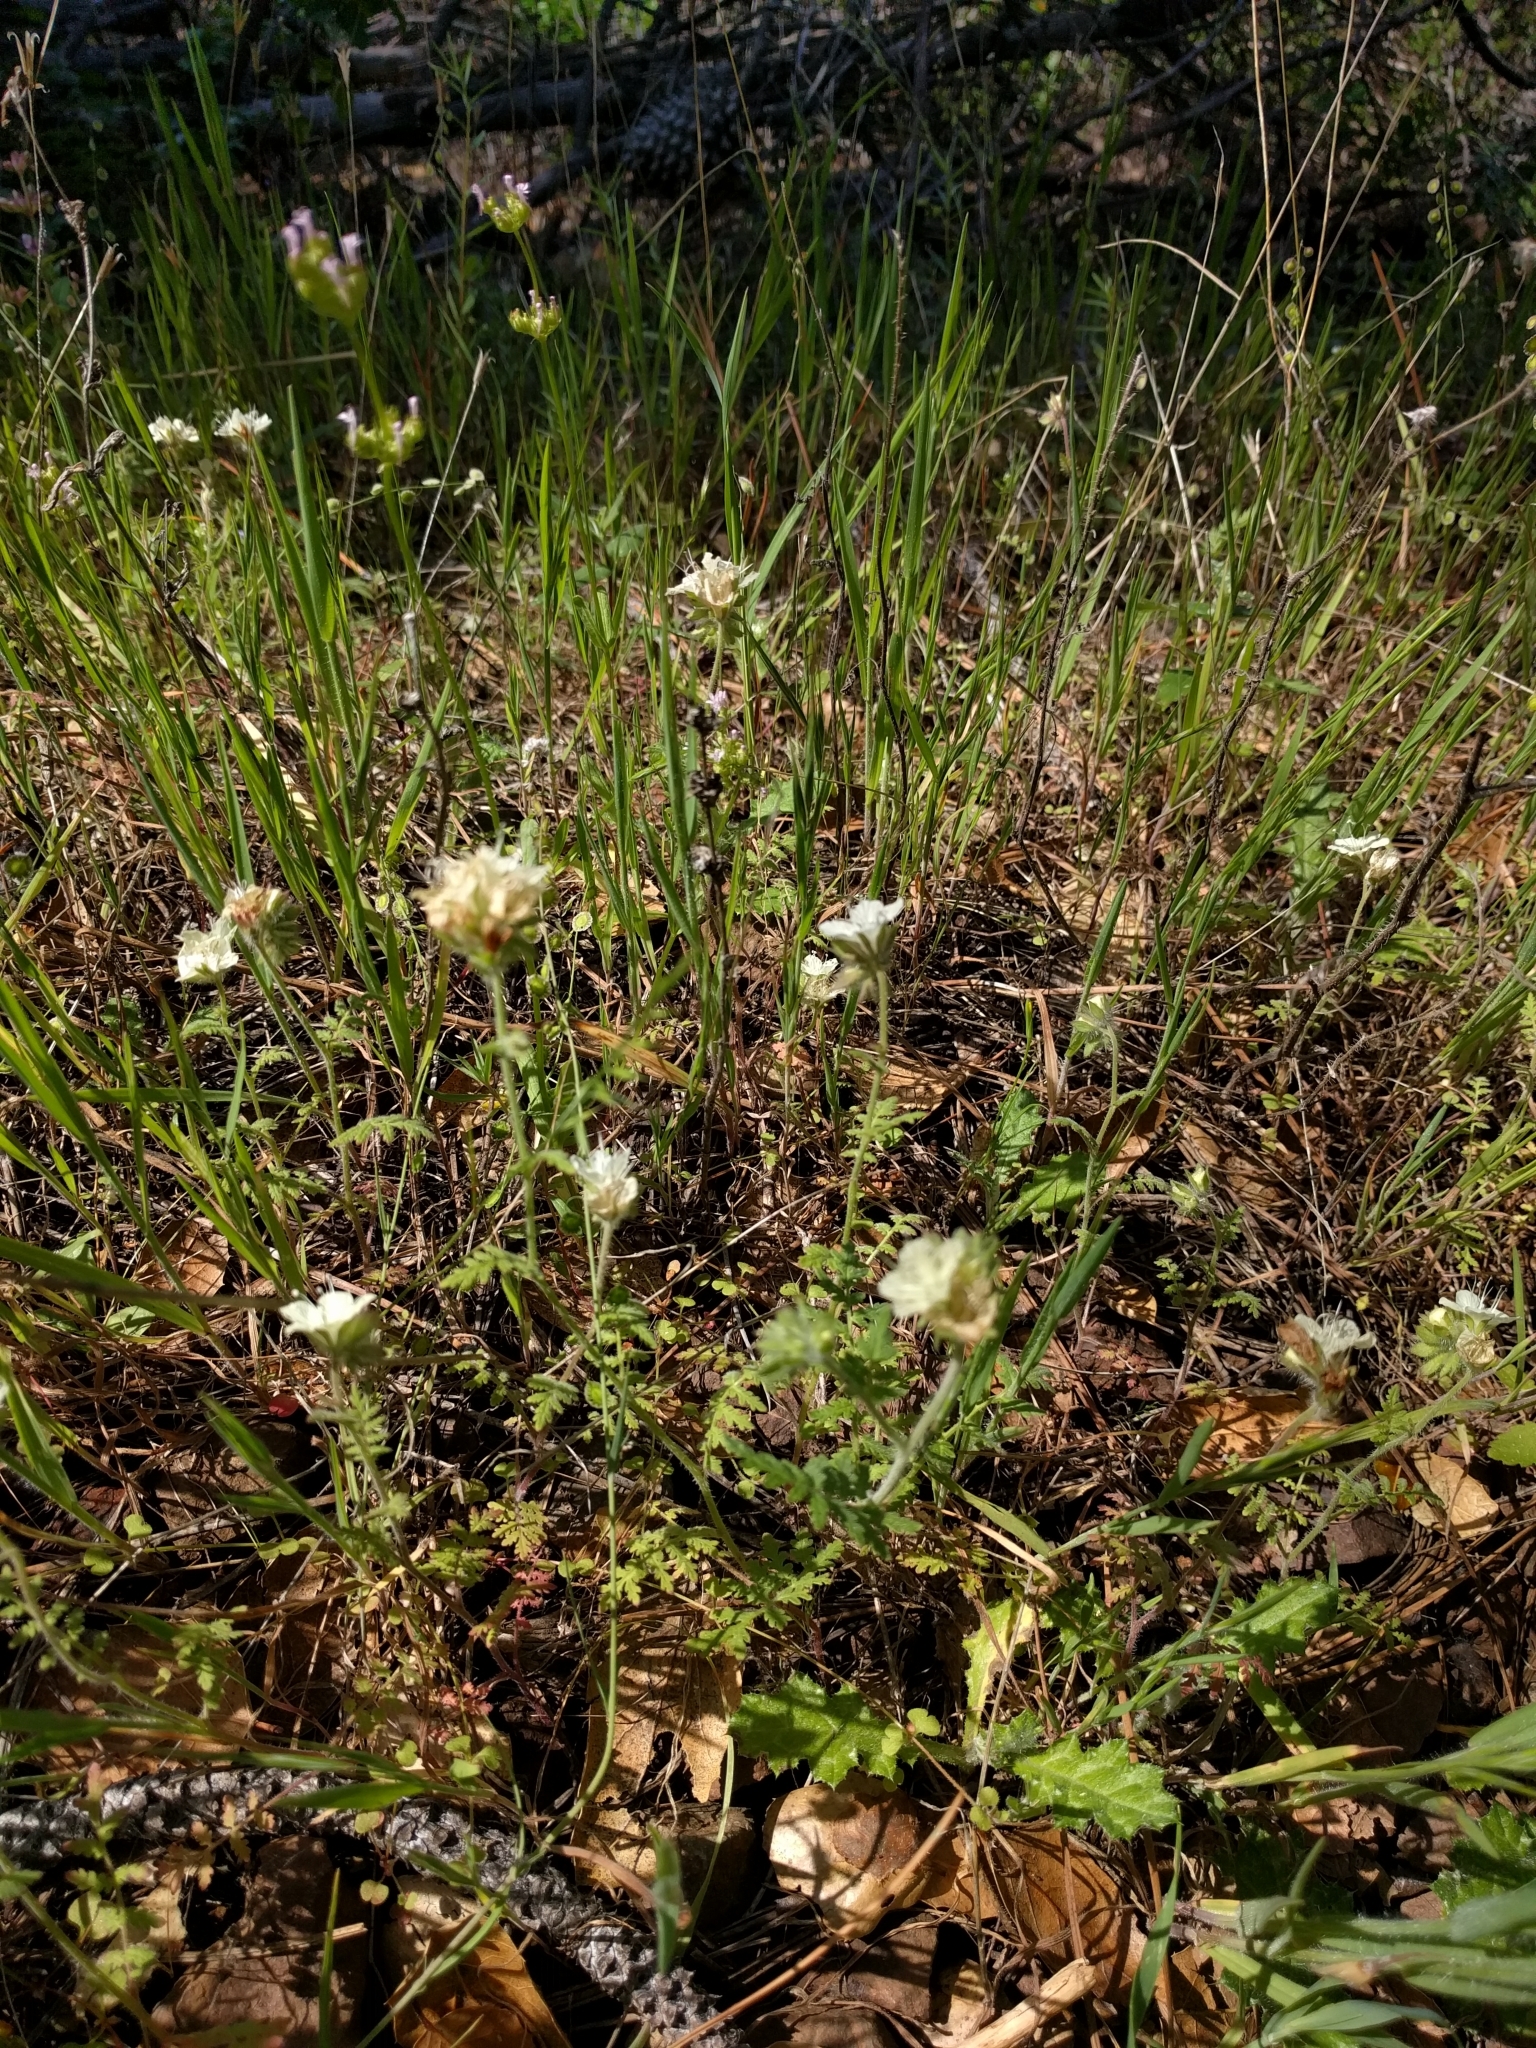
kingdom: Plantae
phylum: Tracheophyta
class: Magnoliopsida
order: Boraginales
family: Hydrophyllaceae
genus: Phacelia
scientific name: Phacelia distans
